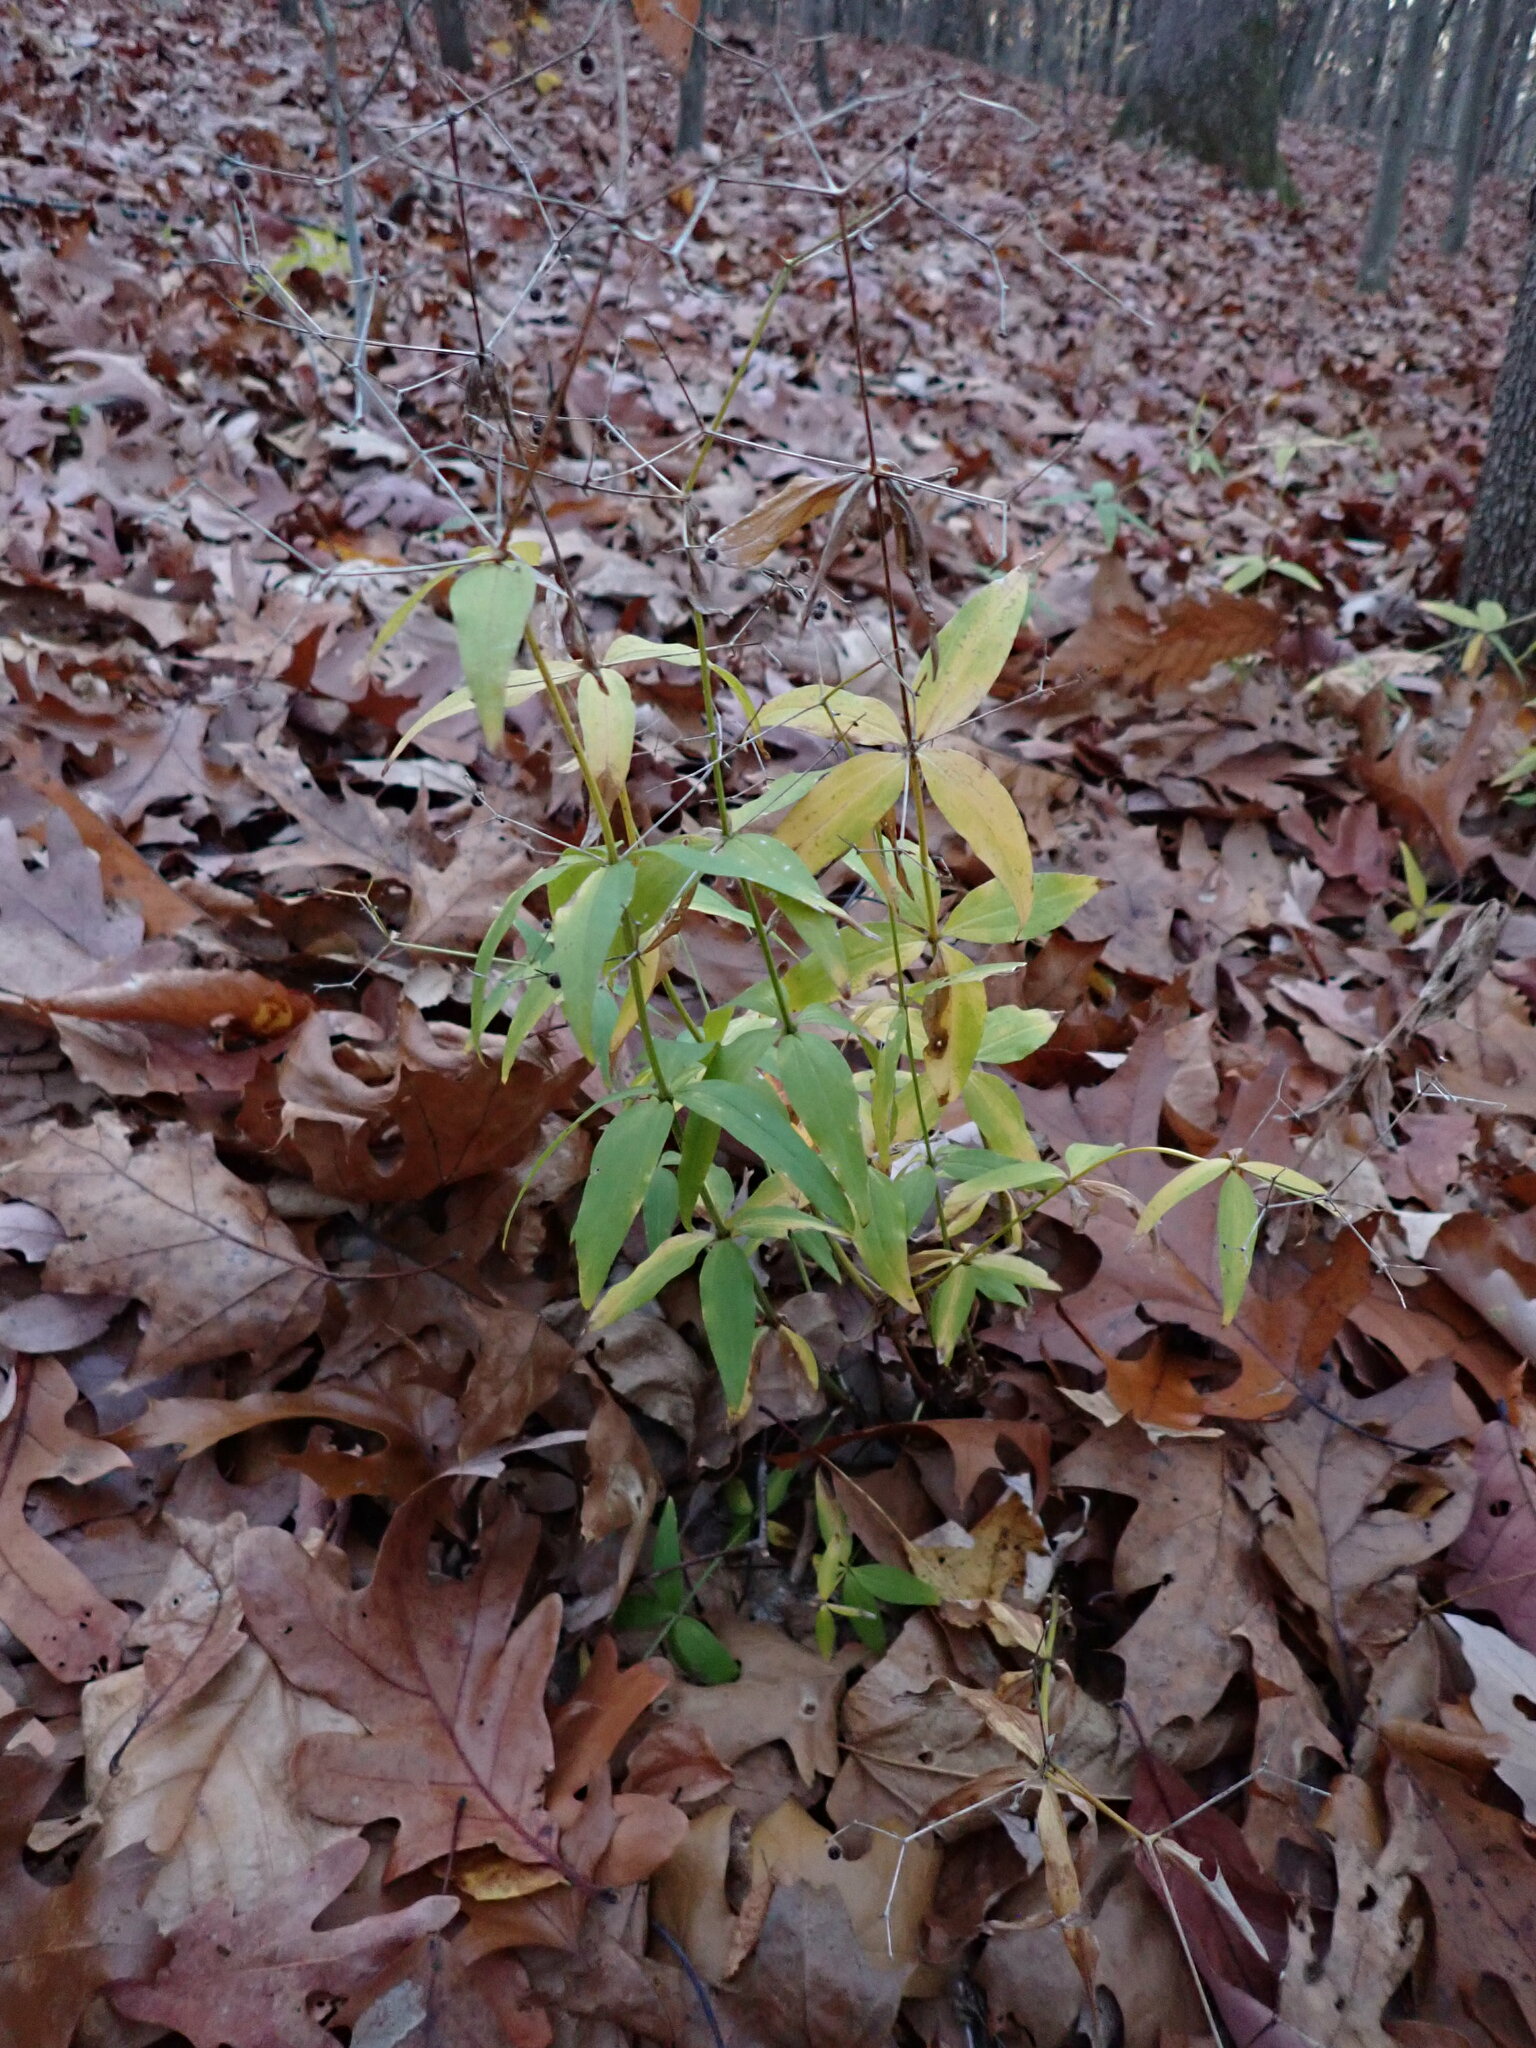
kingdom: Plantae
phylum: Tracheophyta
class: Magnoliopsida
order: Gentianales
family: Rubiaceae
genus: Galium
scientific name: Galium lanceolatum
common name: Lance-leaved wild licorice
